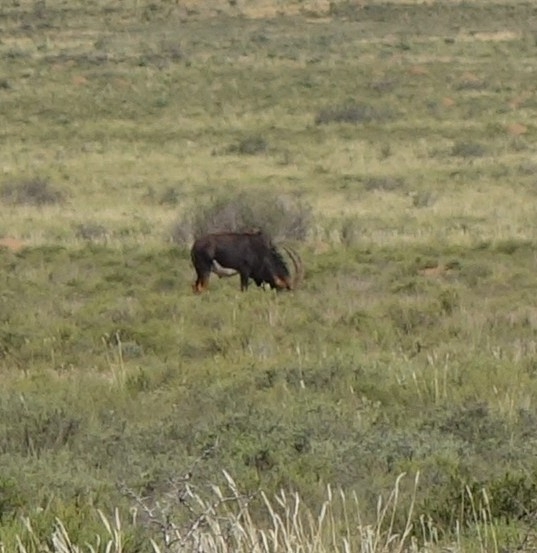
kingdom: Animalia
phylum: Chordata
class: Mammalia
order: Artiodactyla
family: Bovidae
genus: Hippotragus
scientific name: Hippotragus niger
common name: Sable antelope
